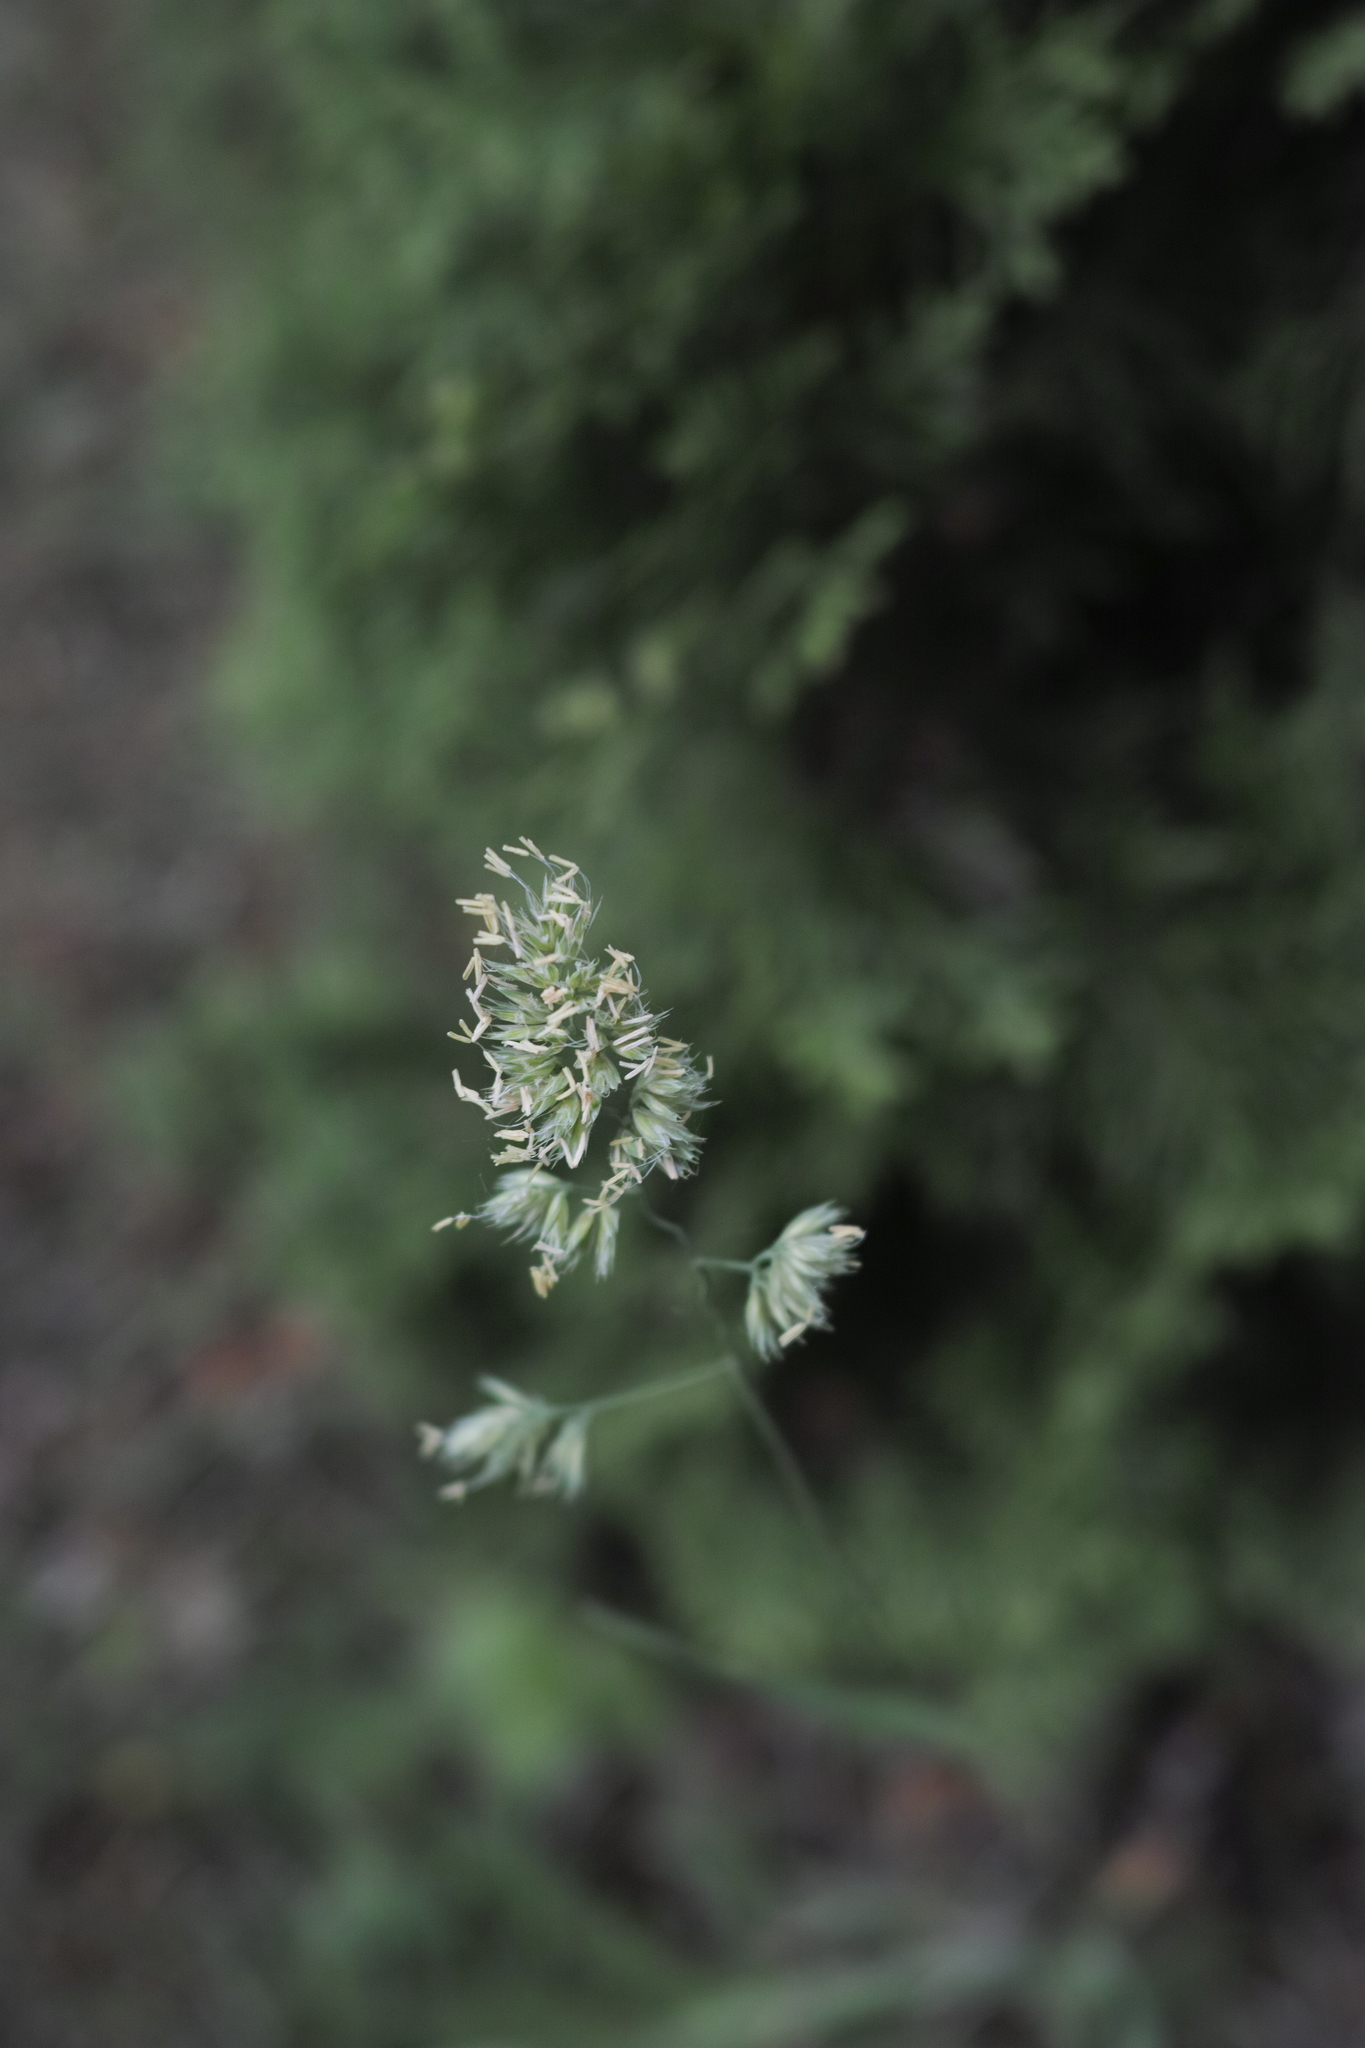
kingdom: Plantae
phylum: Tracheophyta
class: Liliopsida
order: Poales
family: Poaceae
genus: Dactylis
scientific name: Dactylis glomerata
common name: Orchardgrass
